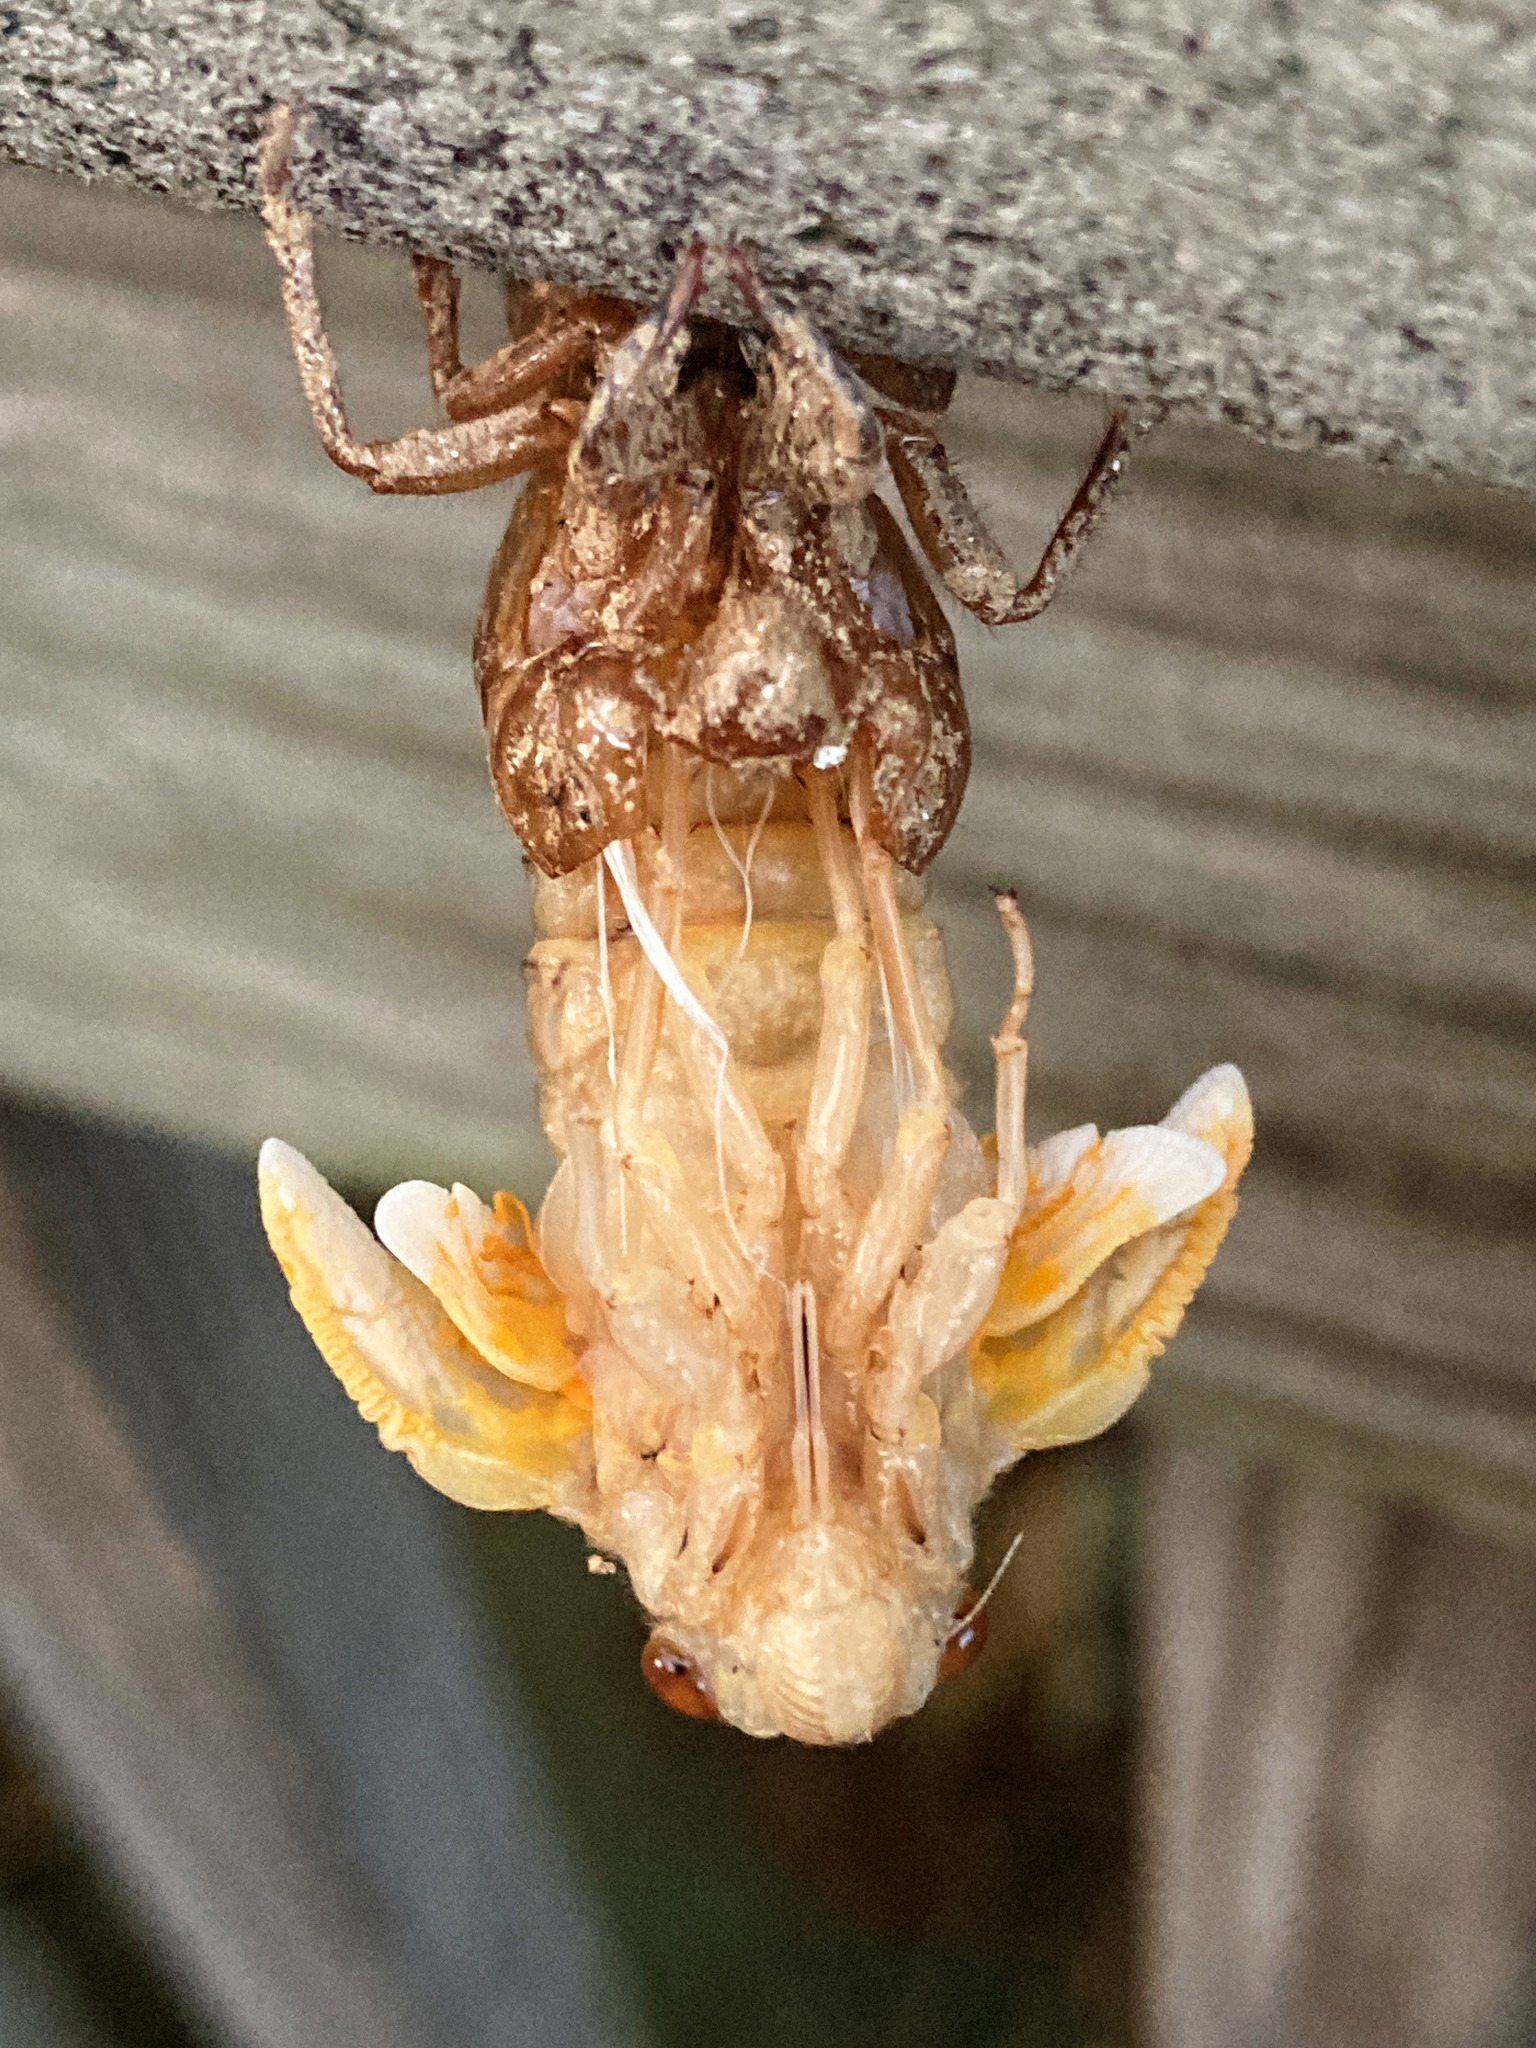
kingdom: Animalia
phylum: Arthropoda
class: Insecta
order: Hemiptera
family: Cicadidae
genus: Magicicada
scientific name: Magicicada
